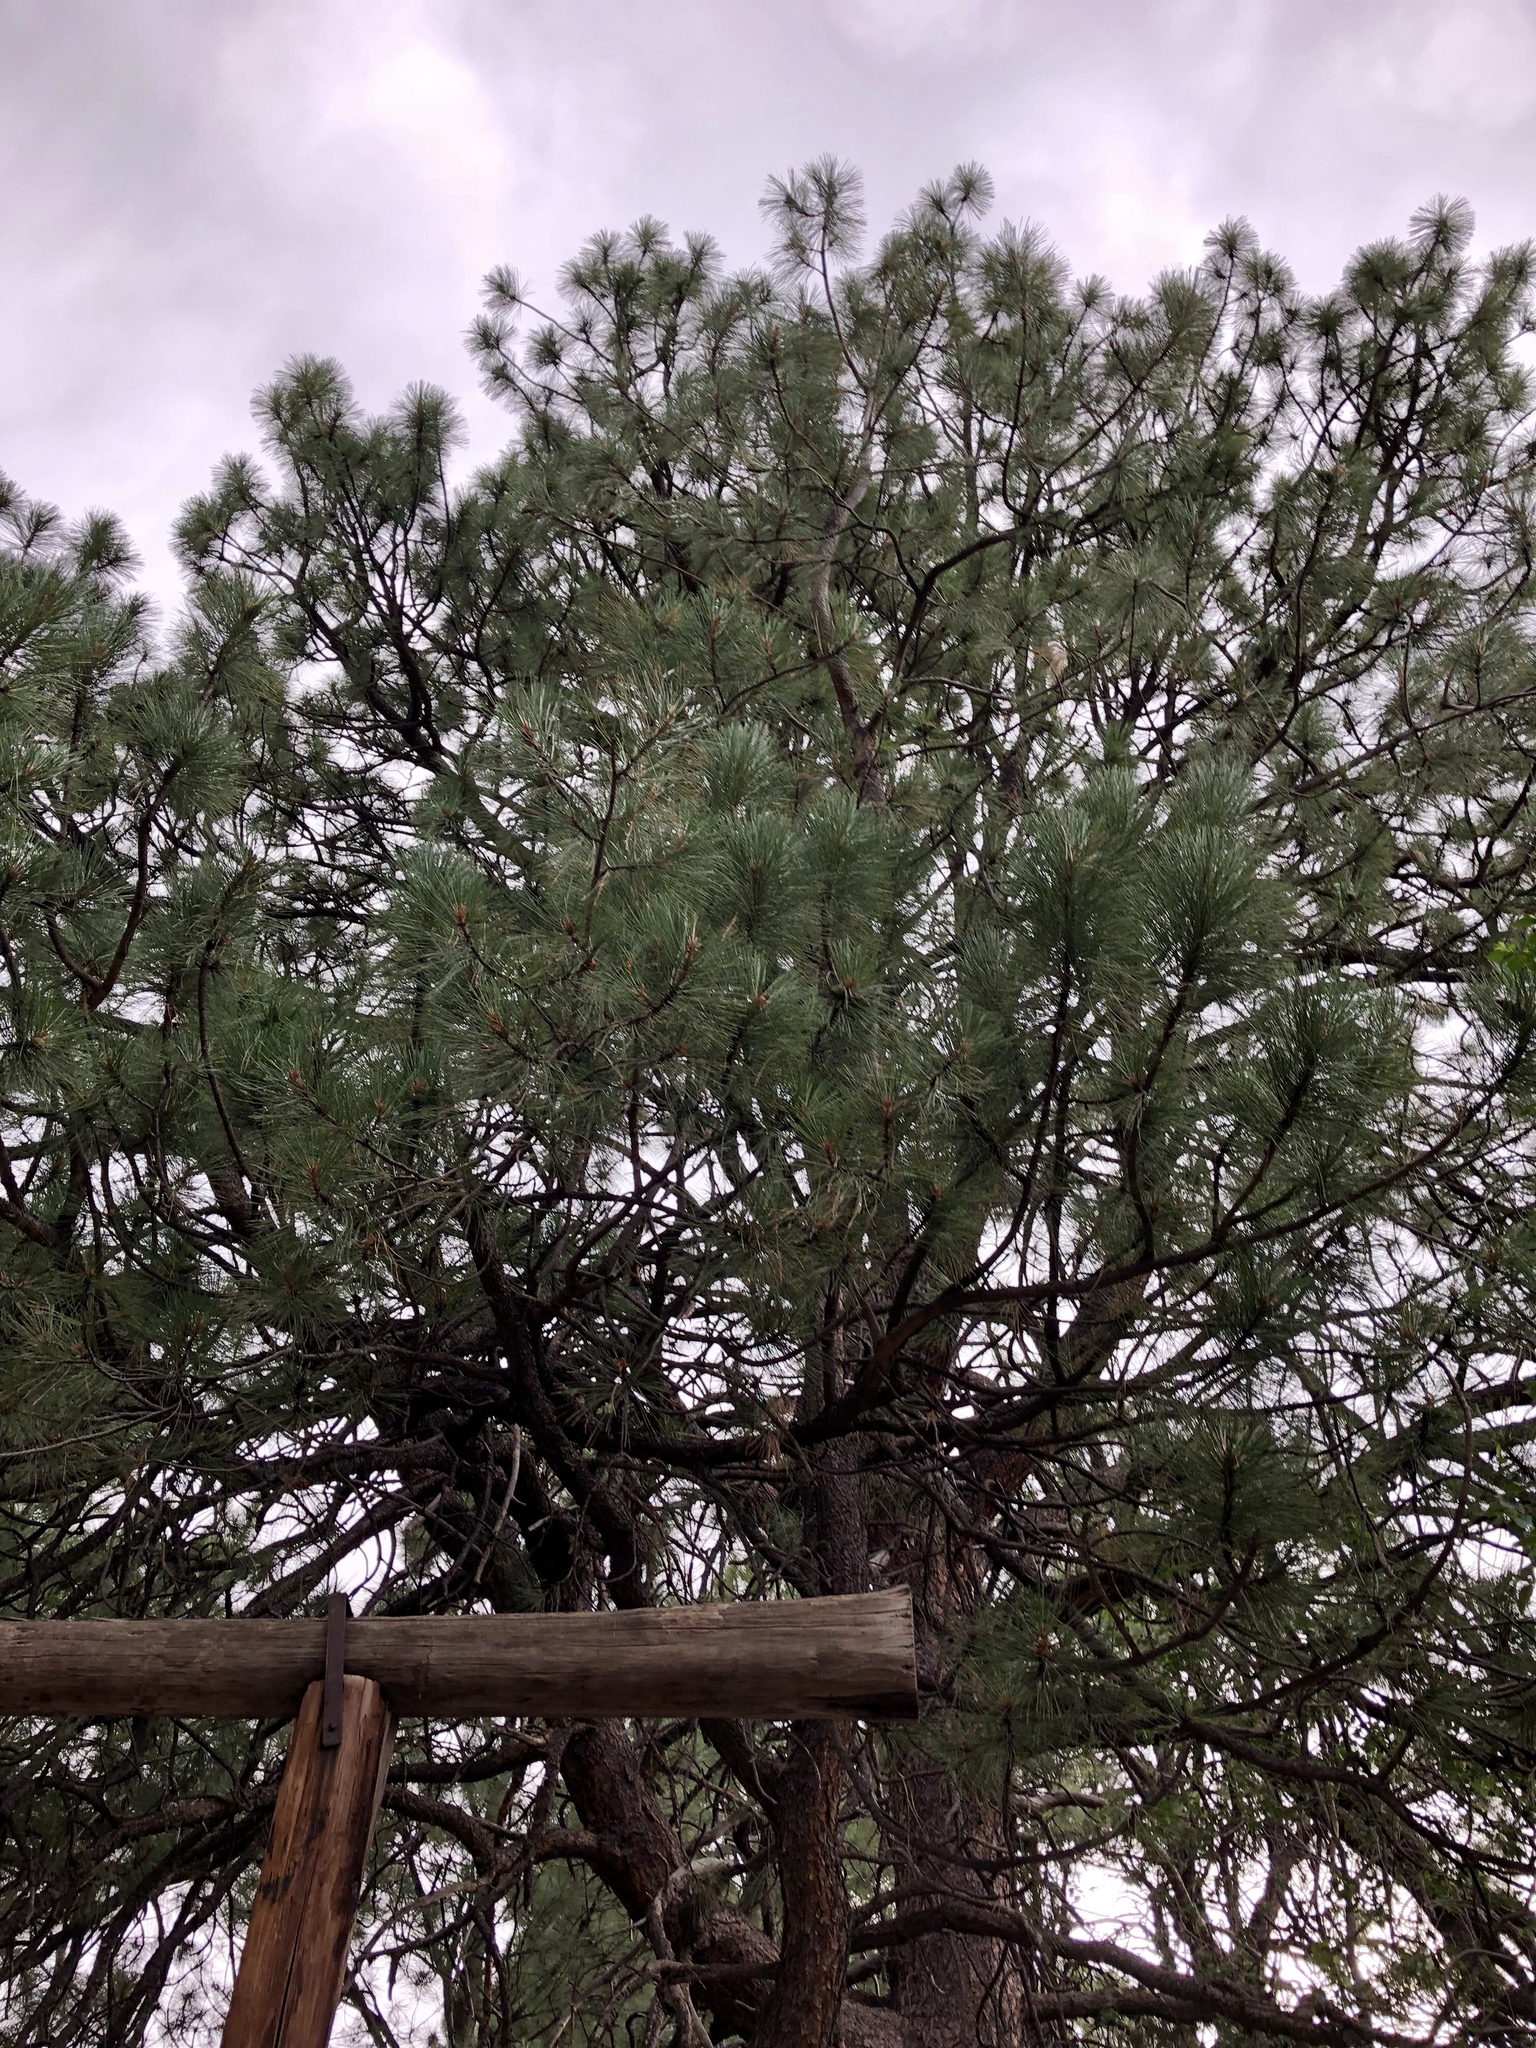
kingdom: Plantae
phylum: Tracheophyta
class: Pinopsida
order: Pinales
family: Pinaceae
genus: Pinus
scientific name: Pinus ponderosa
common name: Western yellow-pine
